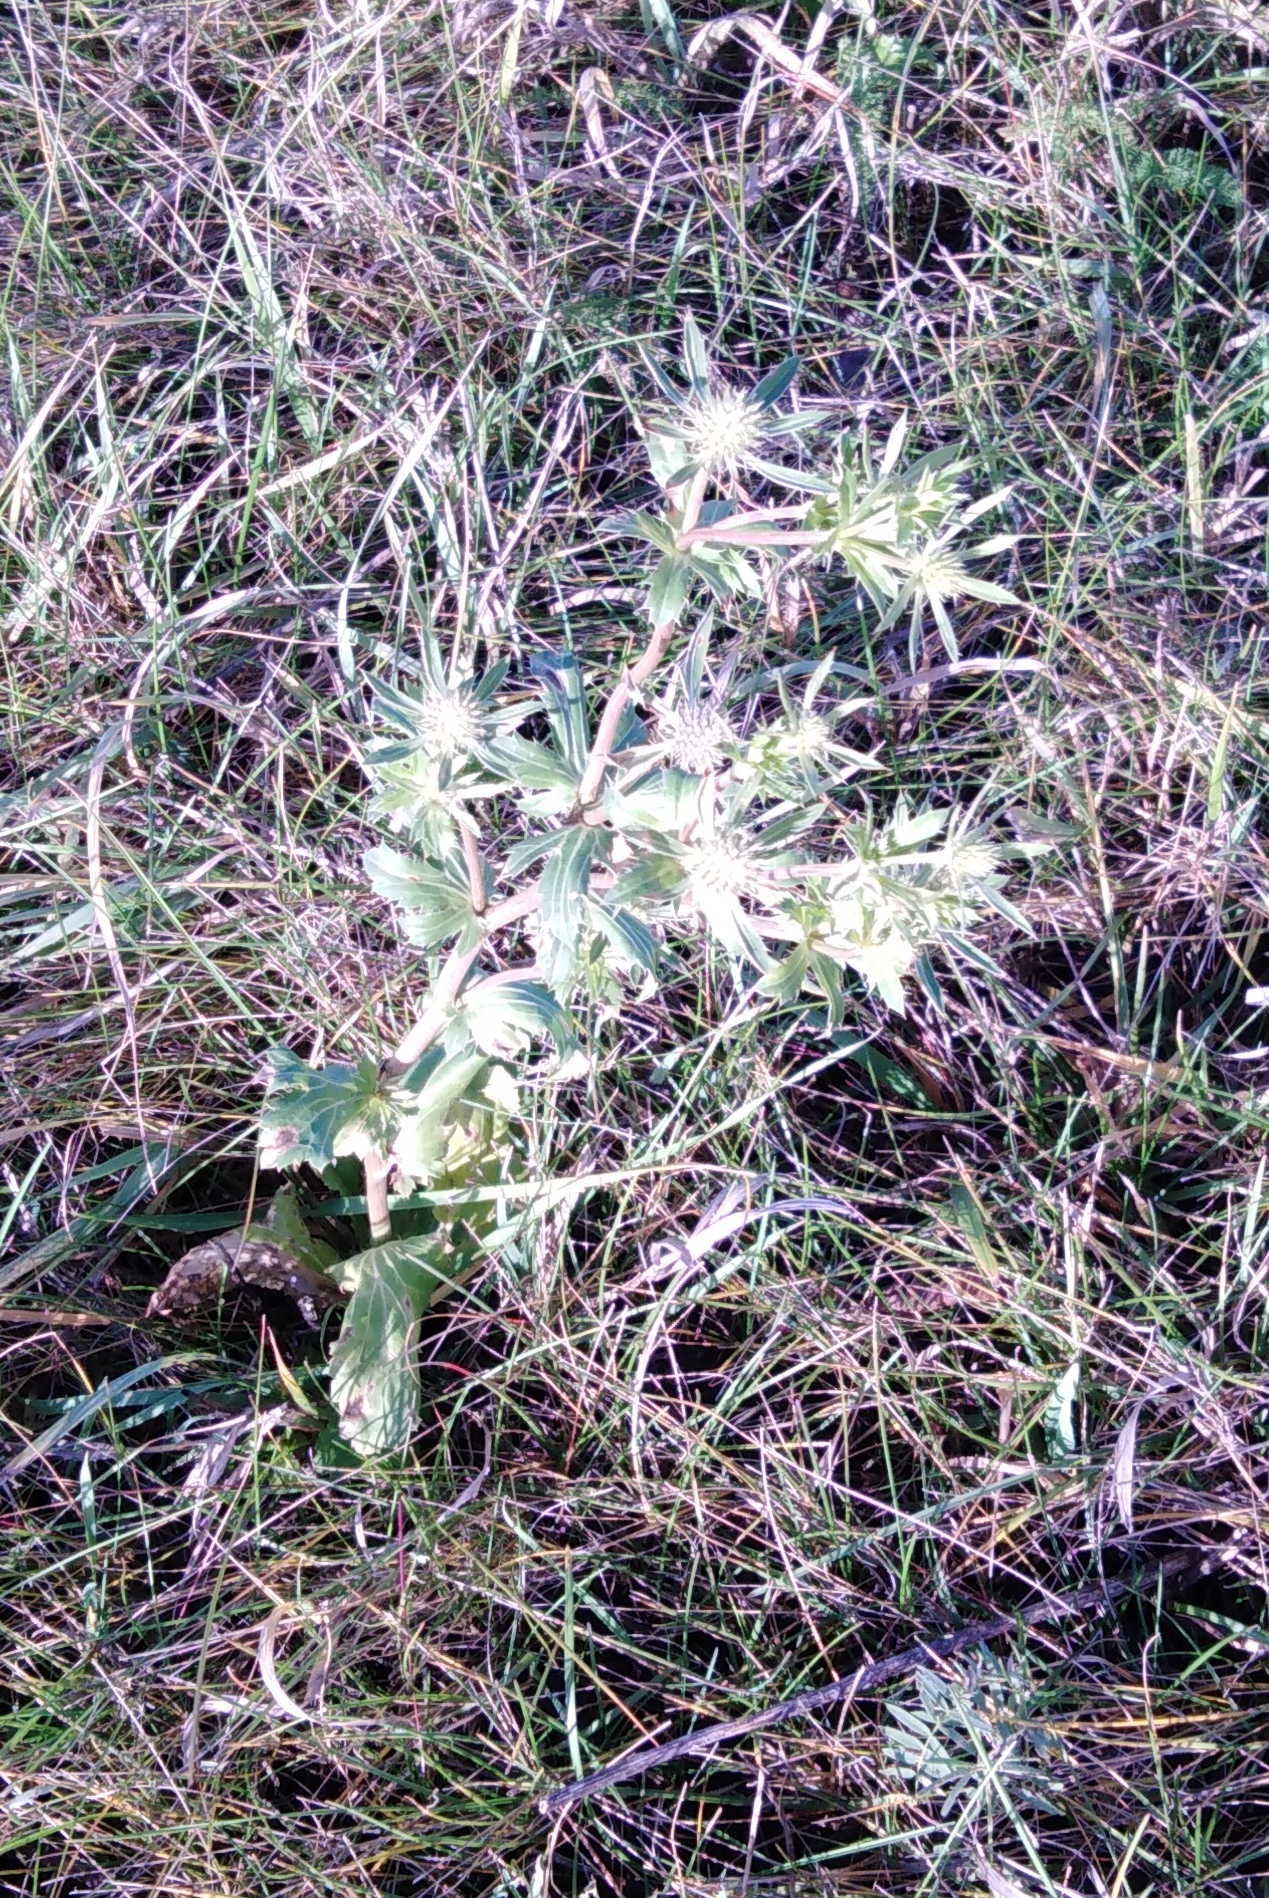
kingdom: Plantae
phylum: Tracheophyta
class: Magnoliopsida
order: Apiales
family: Apiaceae
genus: Eryngium
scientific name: Eryngium planum
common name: Blue eryngo
